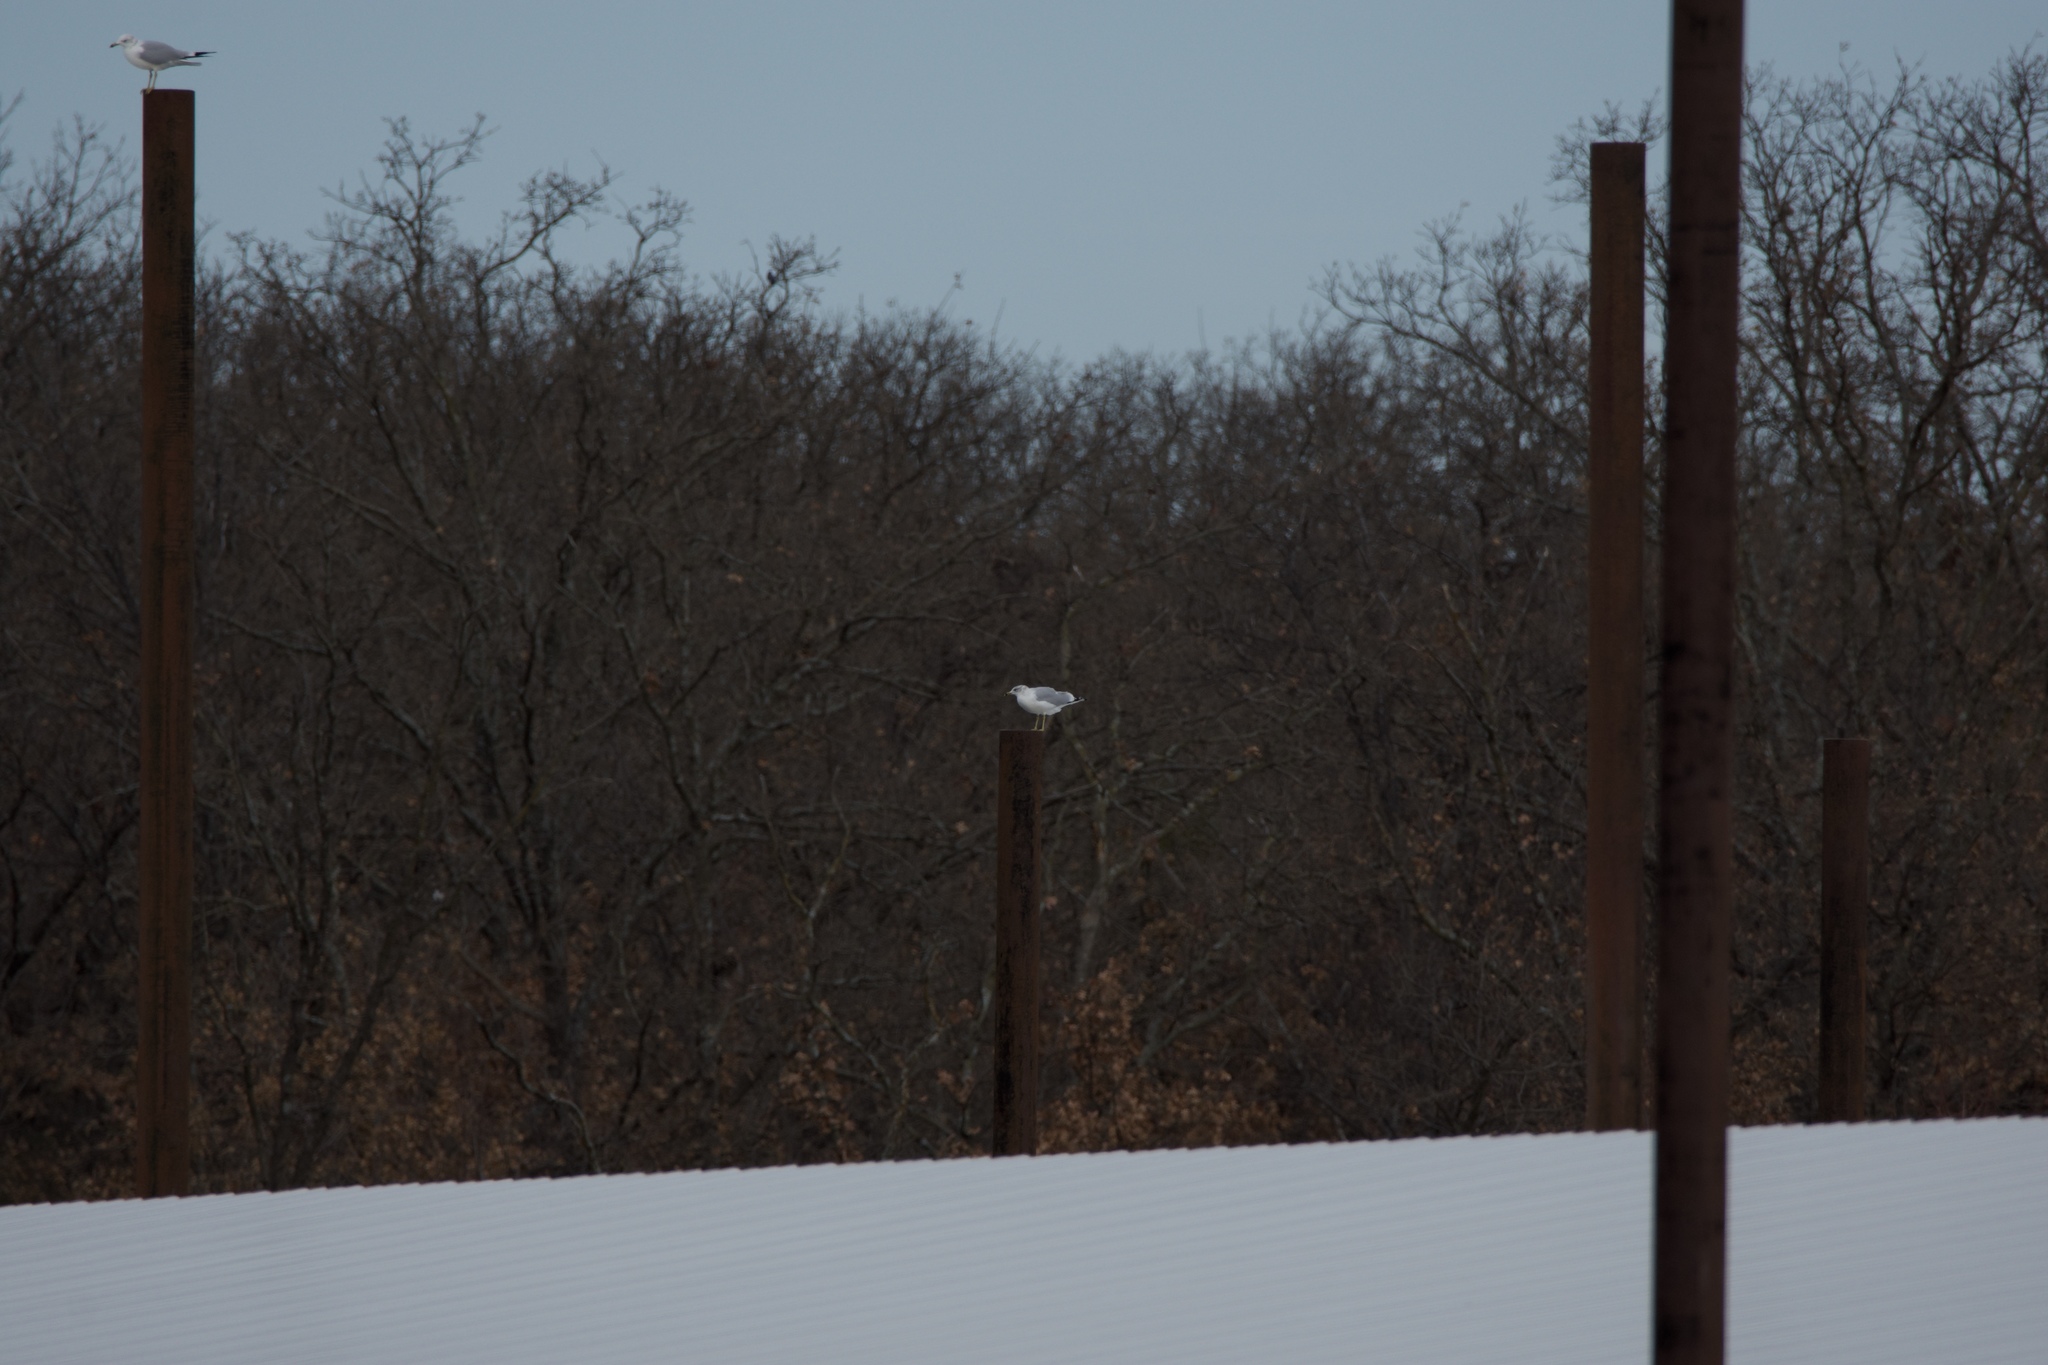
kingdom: Animalia
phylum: Chordata
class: Aves
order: Charadriiformes
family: Laridae
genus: Larus
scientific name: Larus delawarensis
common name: Ring-billed gull
